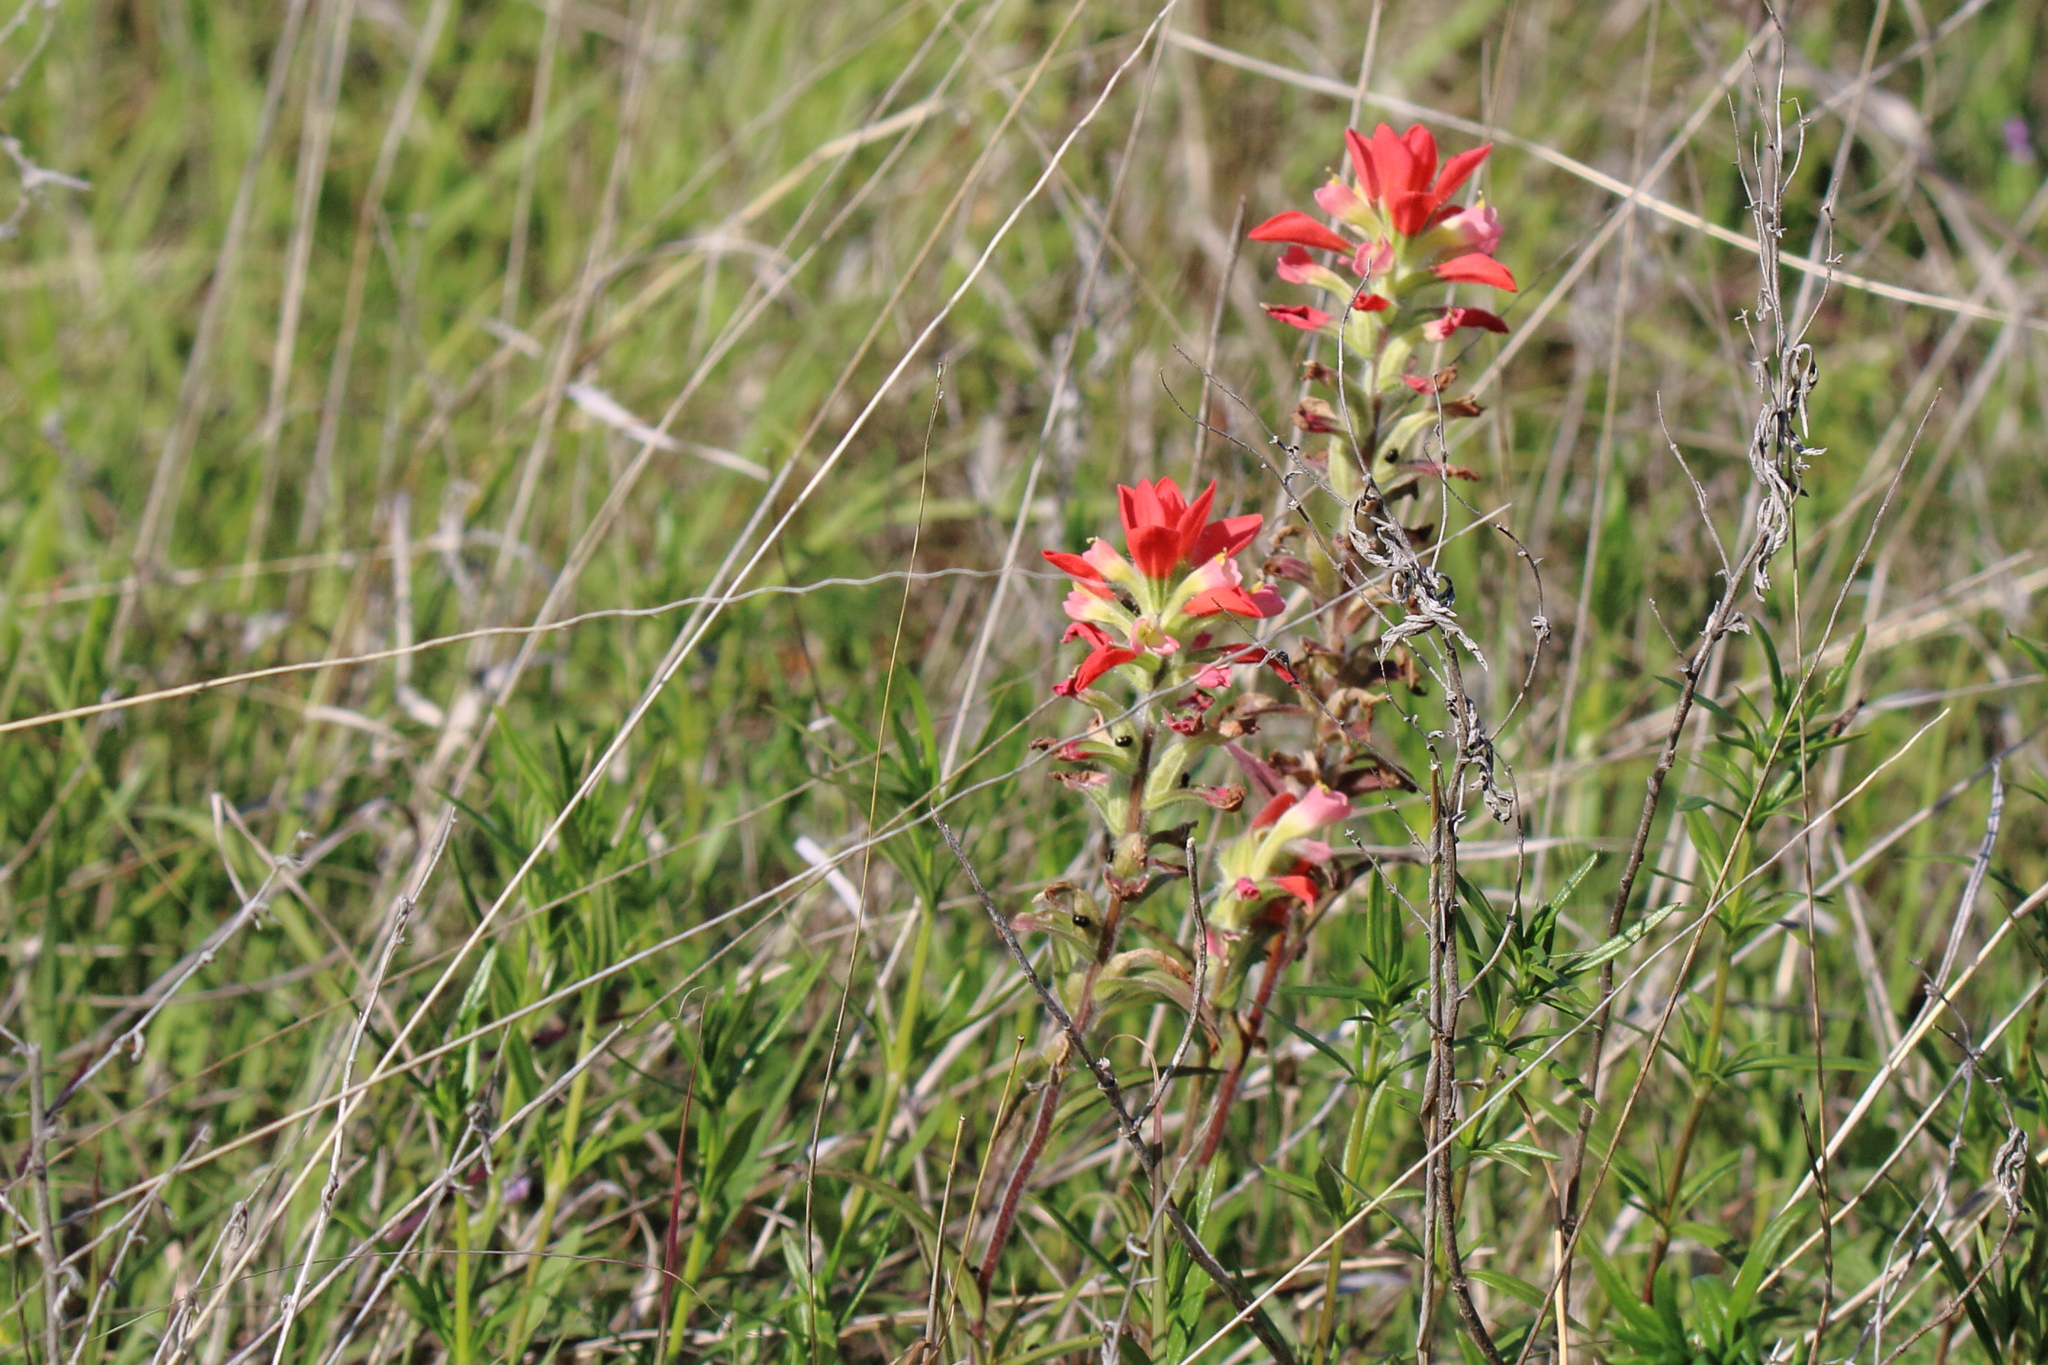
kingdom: Plantae
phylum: Tracheophyta
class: Magnoliopsida
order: Lamiales
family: Orobanchaceae
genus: Castilleja
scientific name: Castilleja indivisa
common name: Texas paintbrush
